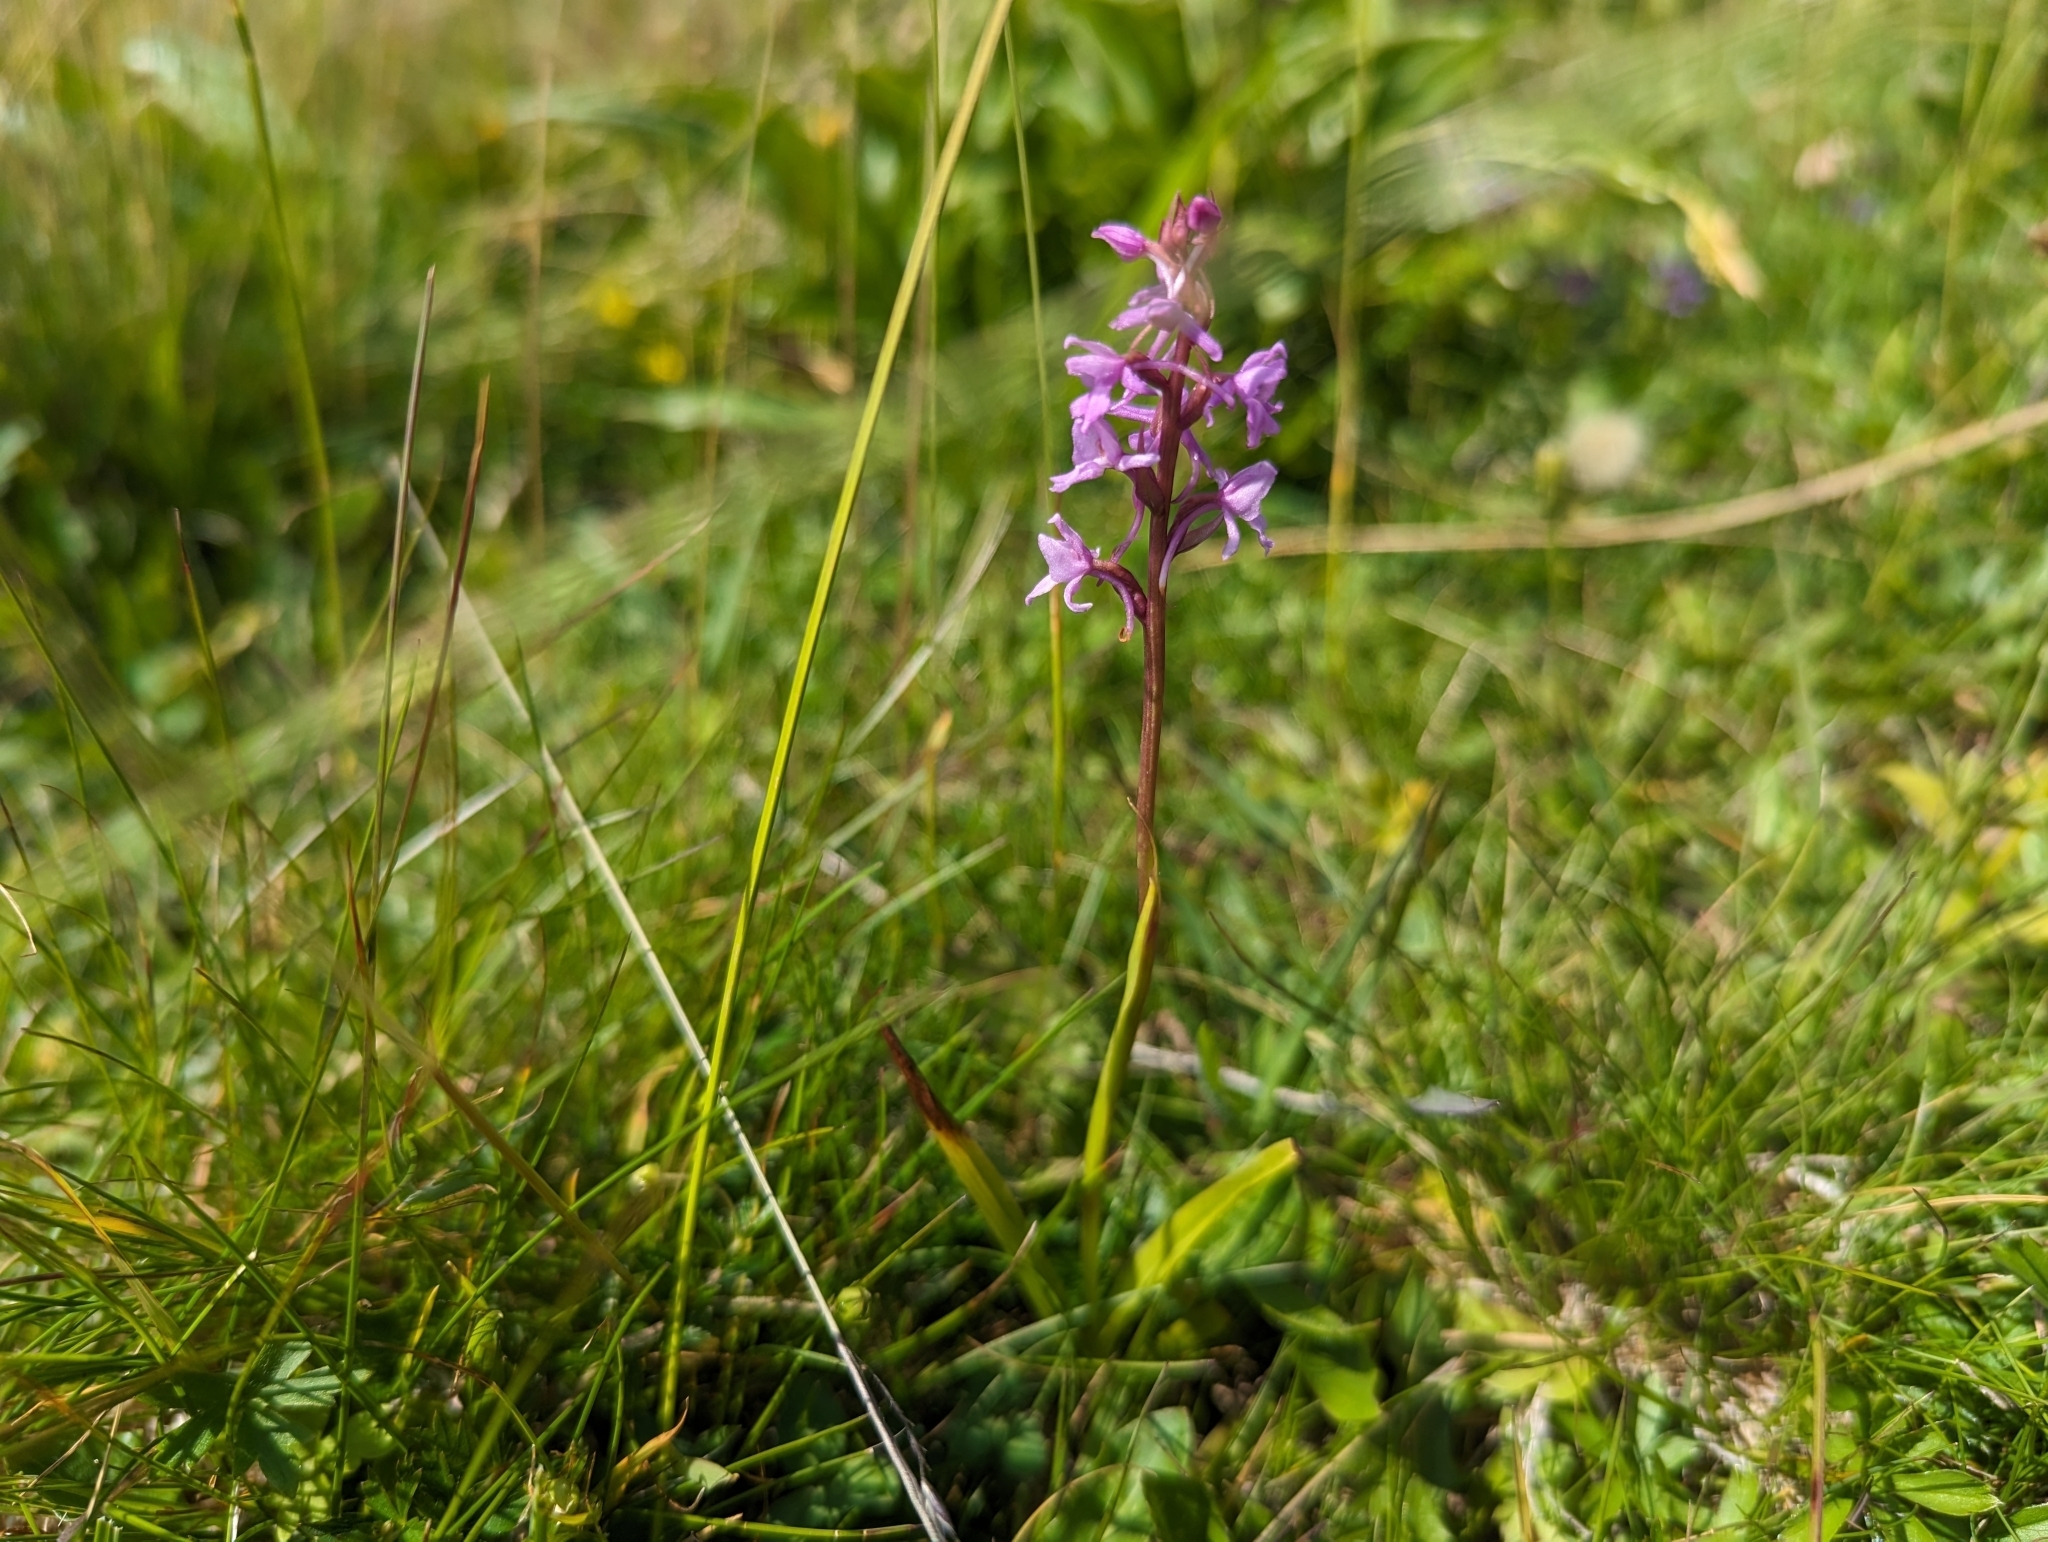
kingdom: Plantae
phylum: Tracheophyta
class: Liliopsida
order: Asparagales
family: Orchidaceae
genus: Gymnadenia
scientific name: Gymnadenia conopsea
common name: Fragrant orchid
